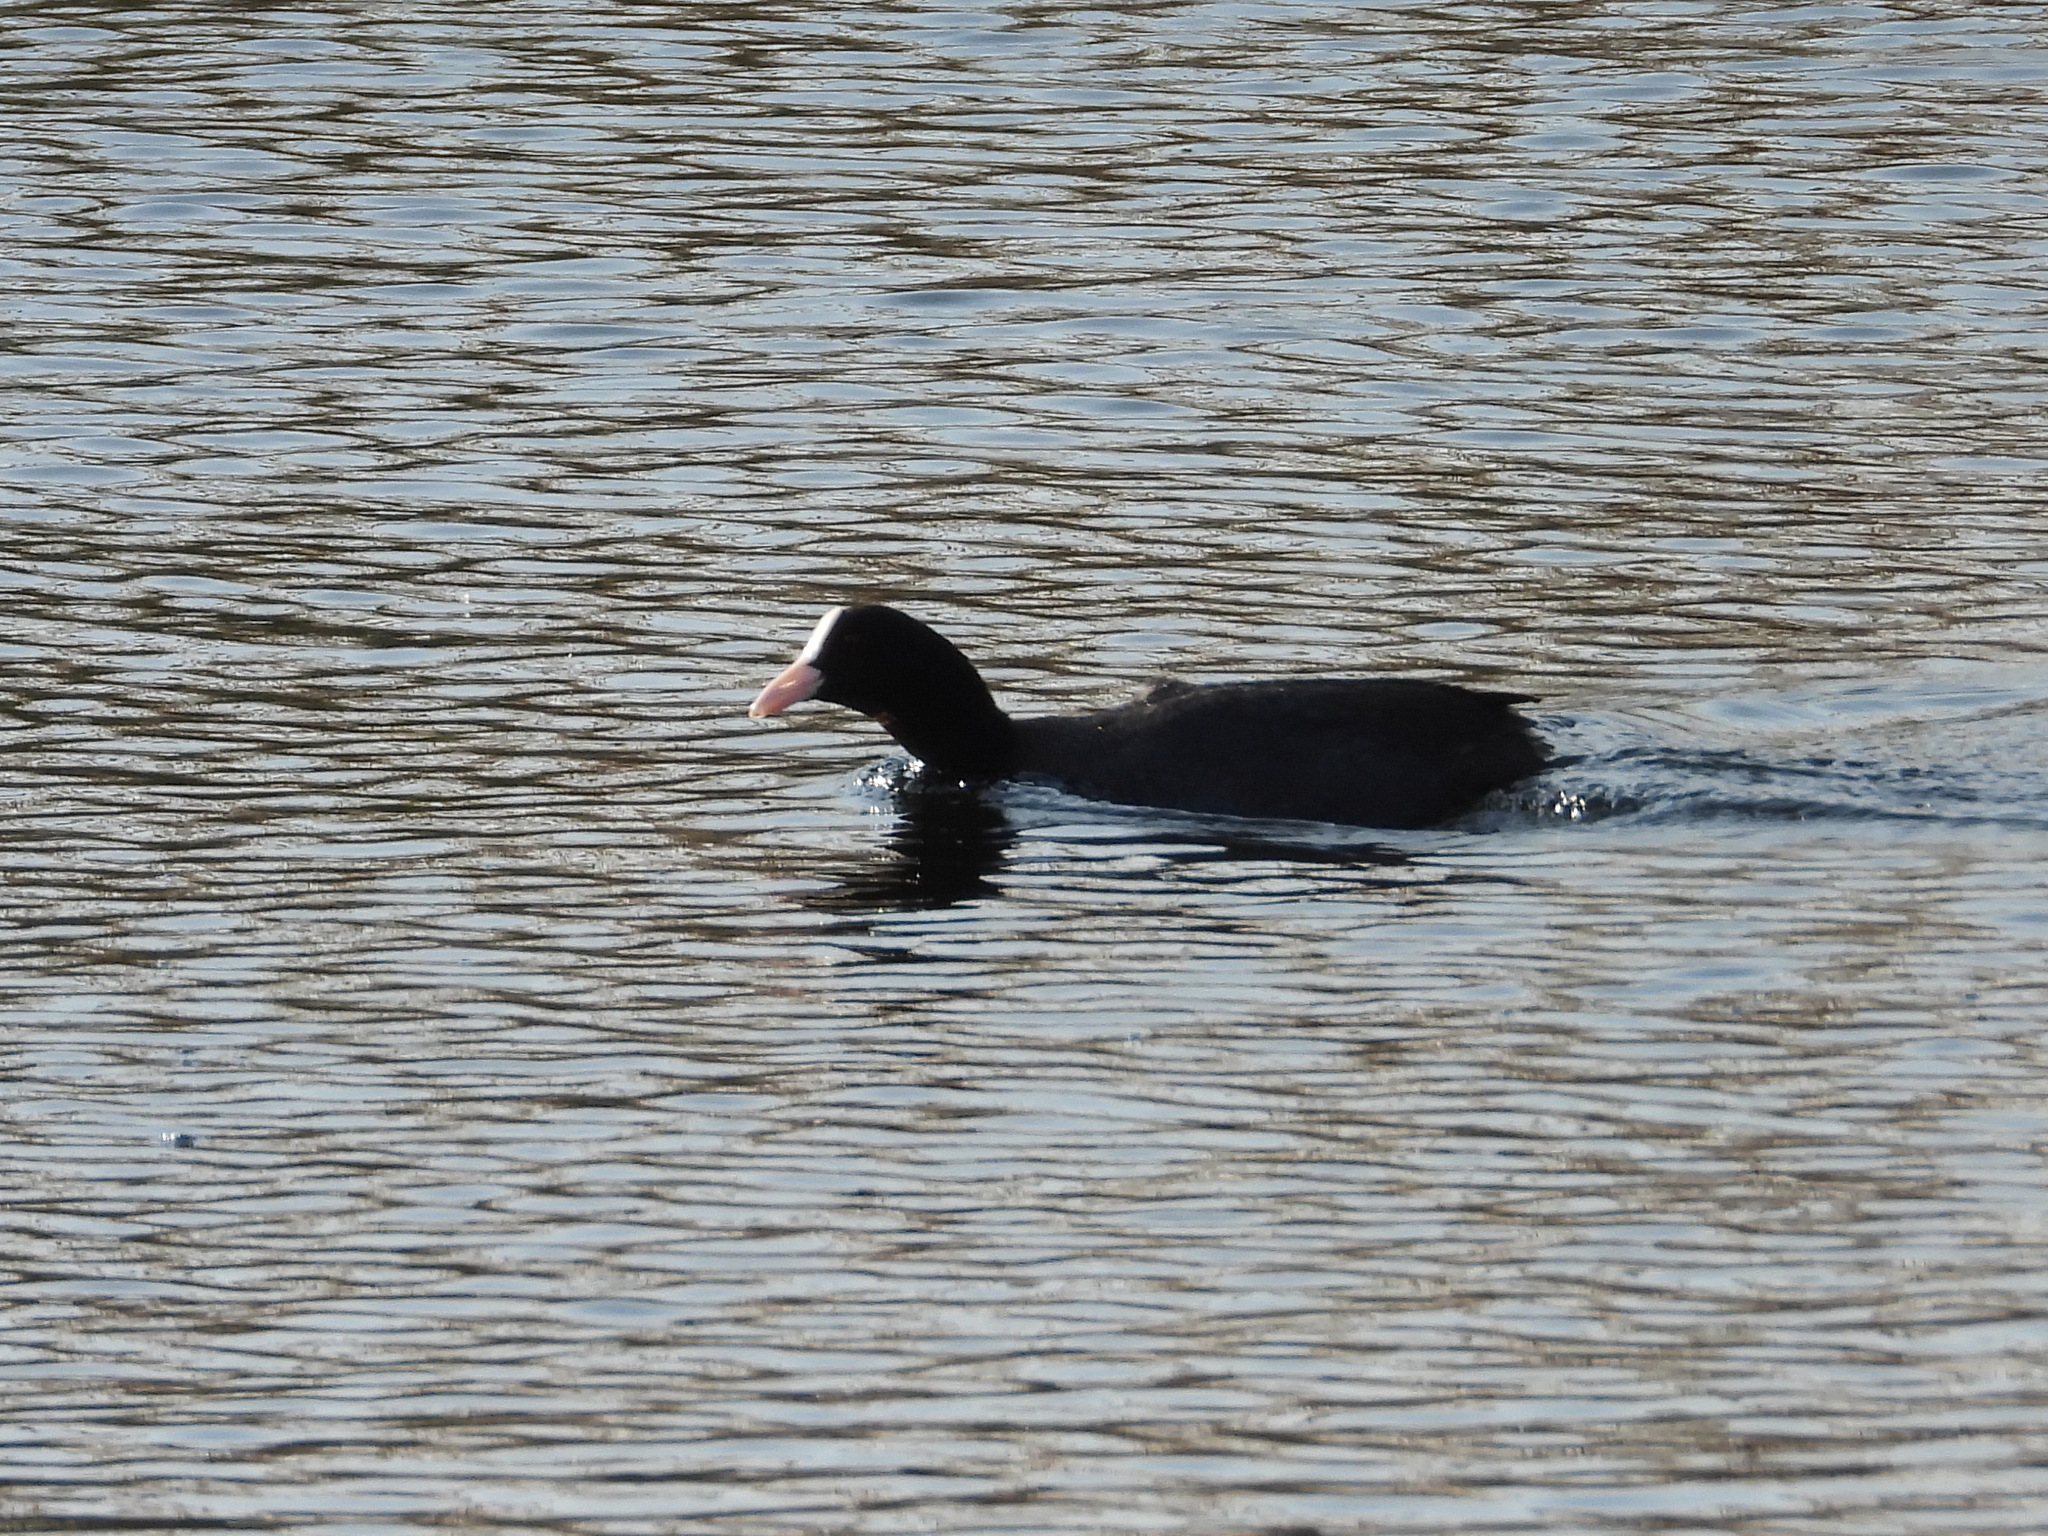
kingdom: Animalia
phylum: Chordata
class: Aves
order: Gruiformes
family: Rallidae
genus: Fulica
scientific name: Fulica atra
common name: Eurasian coot
